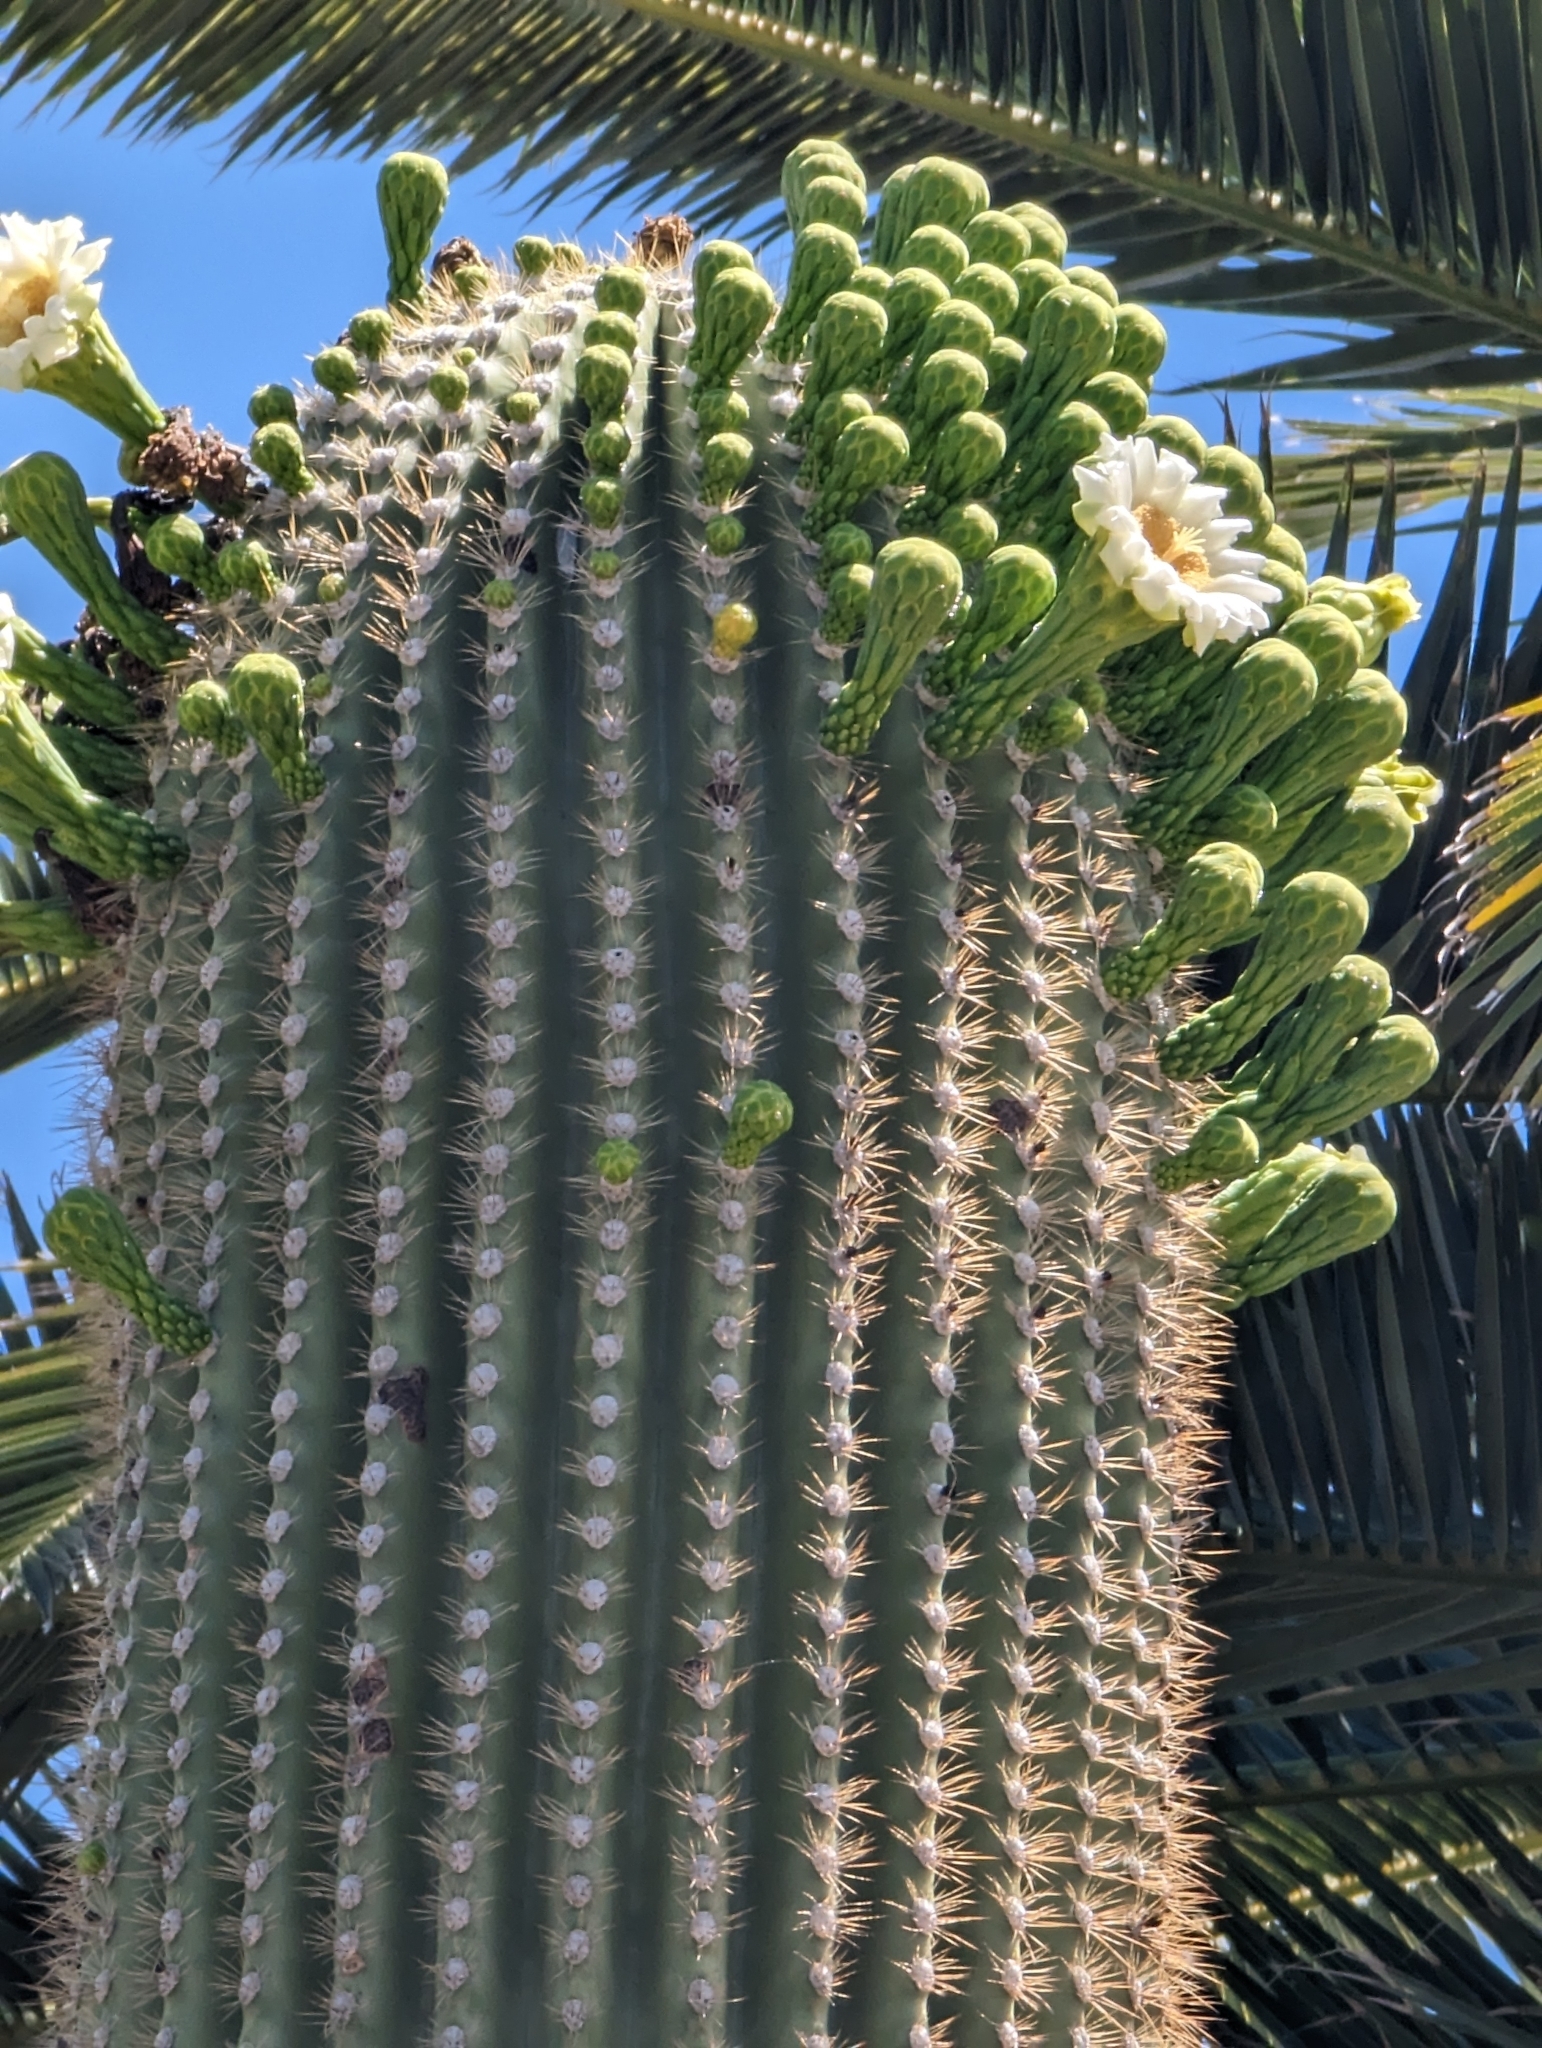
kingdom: Plantae
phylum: Tracheophyta
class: Magnoliopsida
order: Caryophyllales
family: Cactaceae
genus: Carnegiea
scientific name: Carnegiea gigantea
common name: Saguaro
